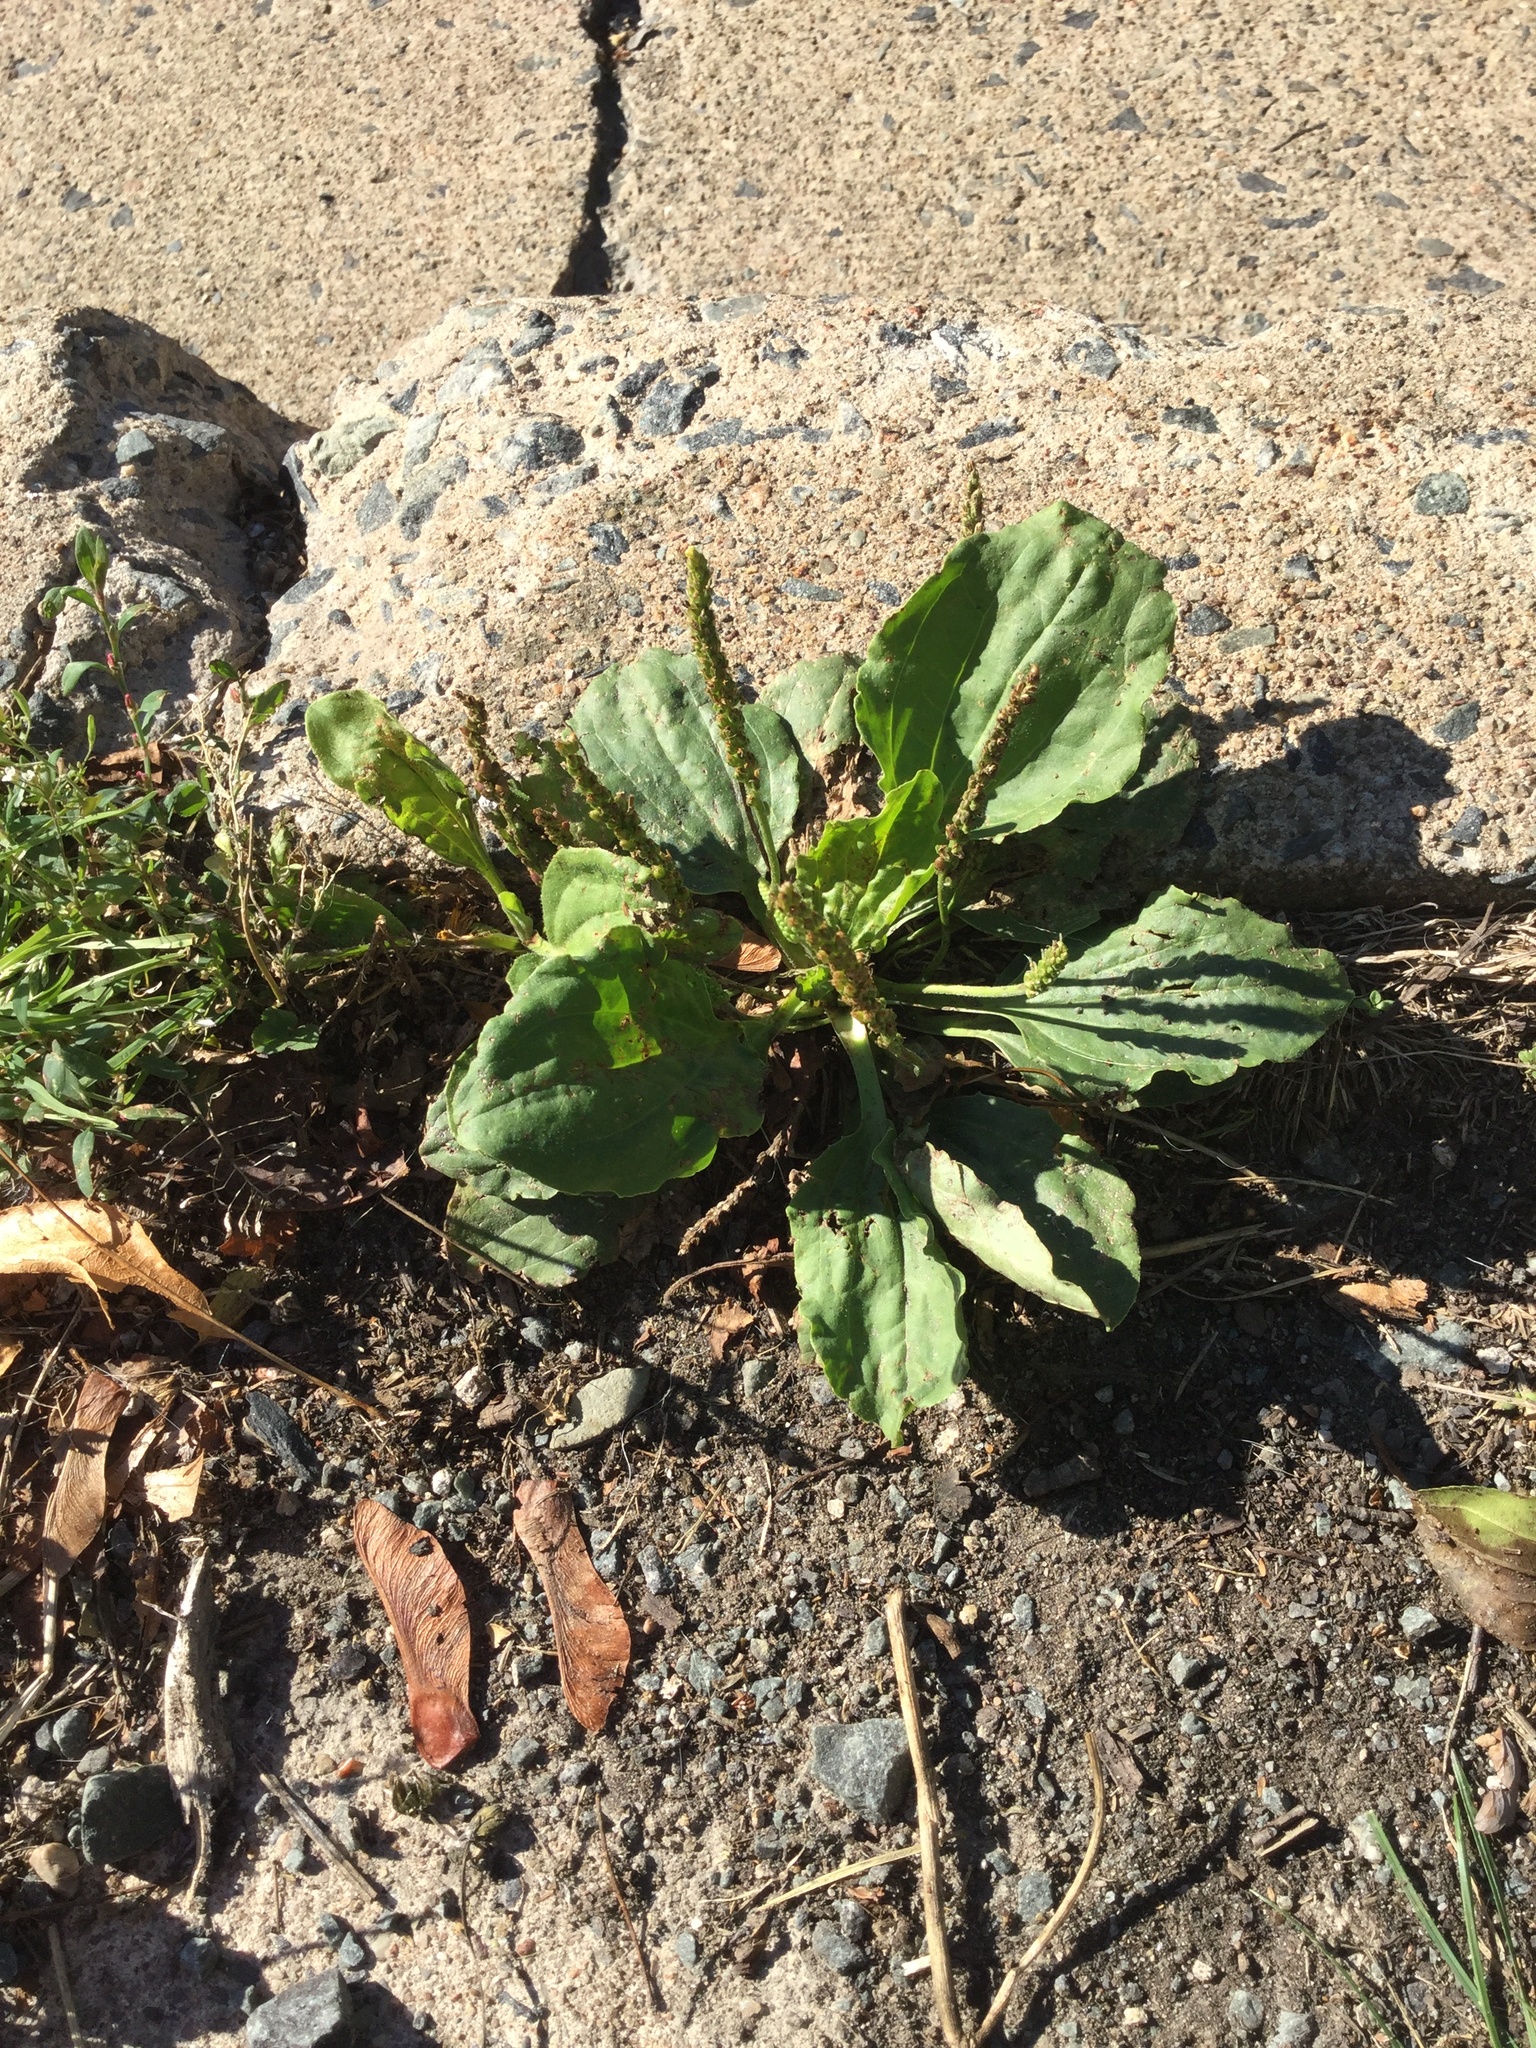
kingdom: Plantae
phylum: Tracheophyta
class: Magnoliopsida
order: Lamiales
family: Plantaginaceae
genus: Plantago
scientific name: Plantago major
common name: Common plantain
